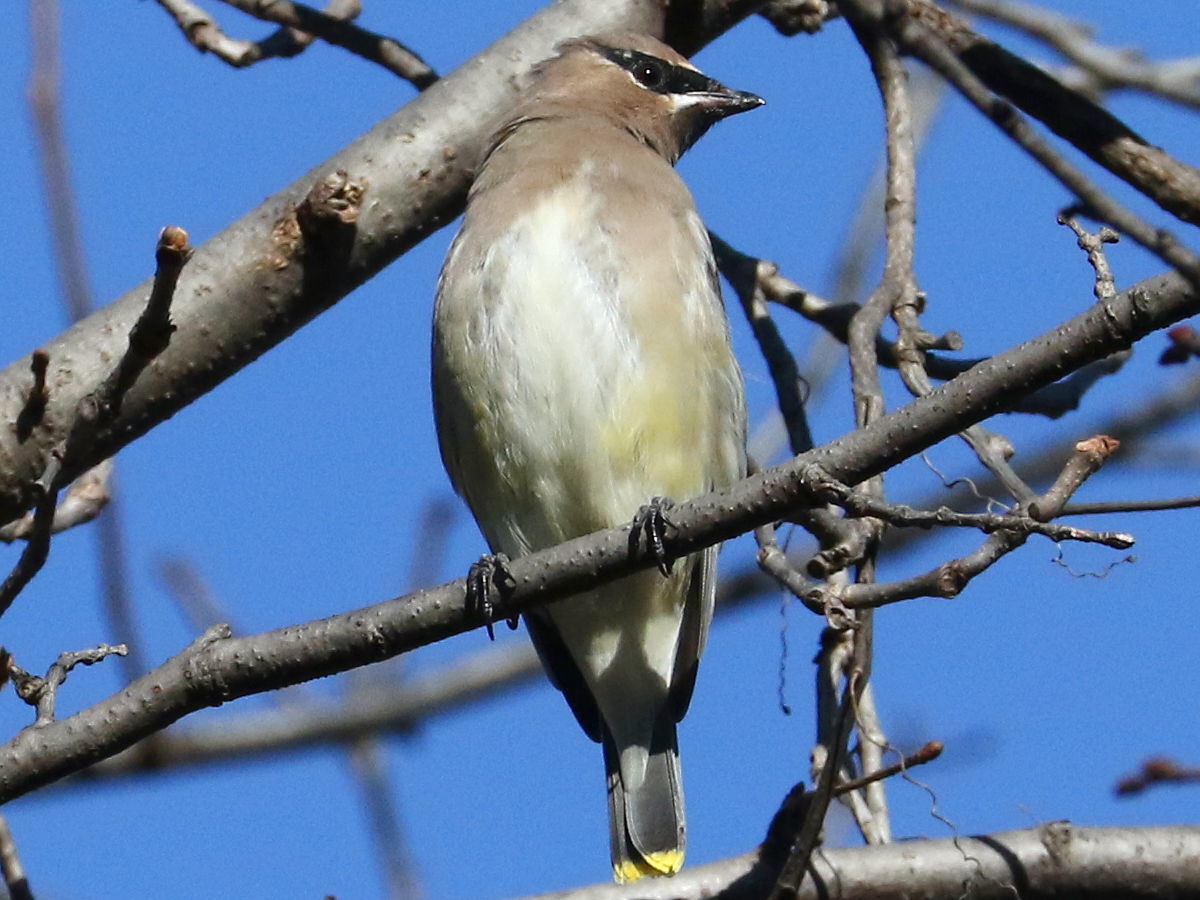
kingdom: Animalia
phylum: Chordata
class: Aves
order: Passeriformes
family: Bombycillidae
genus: Bombycilla
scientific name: Bombycilla cedrorum
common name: Cedar waxwing
